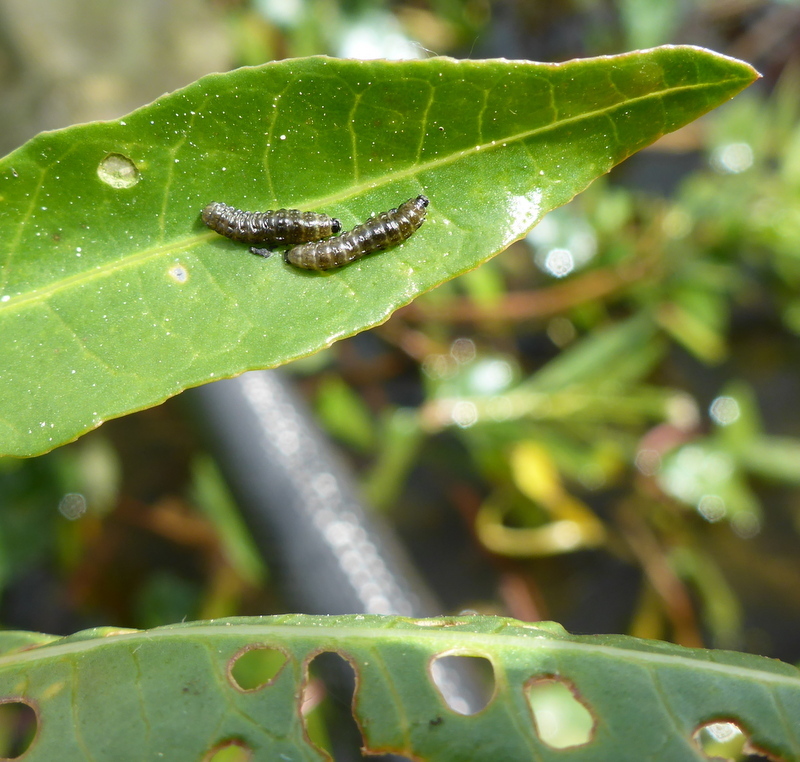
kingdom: Animalia
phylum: Arthropoda
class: Insecta
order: Coleoptera
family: Chrysomelidae
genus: Agasicles
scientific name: Agasicles hygrophila
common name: Alligatorweed flea beetle
